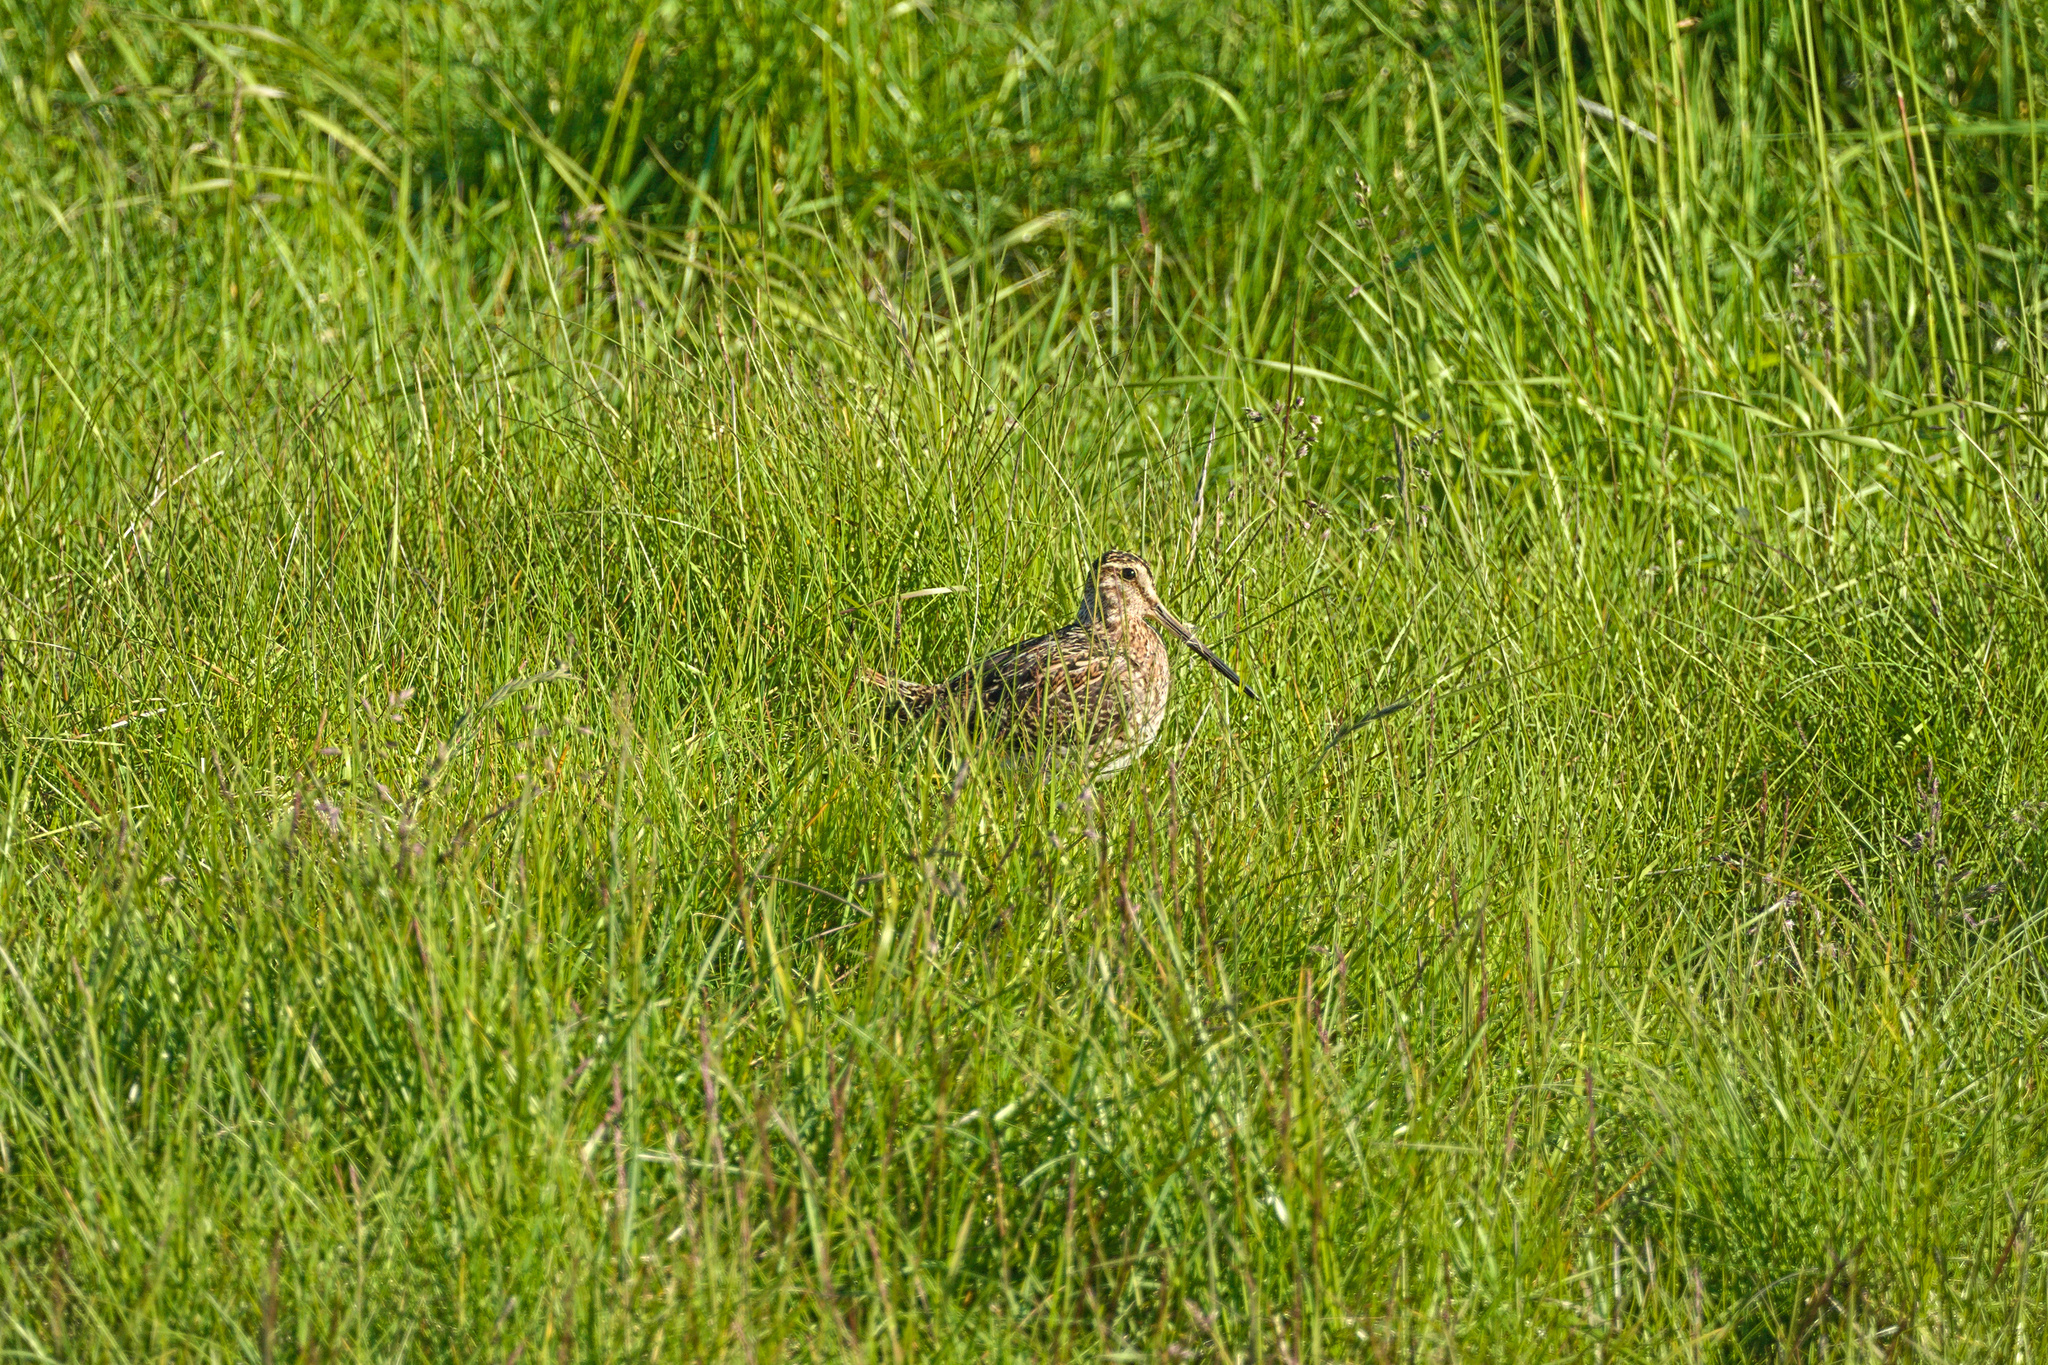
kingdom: Animalia
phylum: Chordata
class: Aves
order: Charadriiformes
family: Scolopacidae
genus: Gallinago
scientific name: Gallinago gallinago
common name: Common snipe
